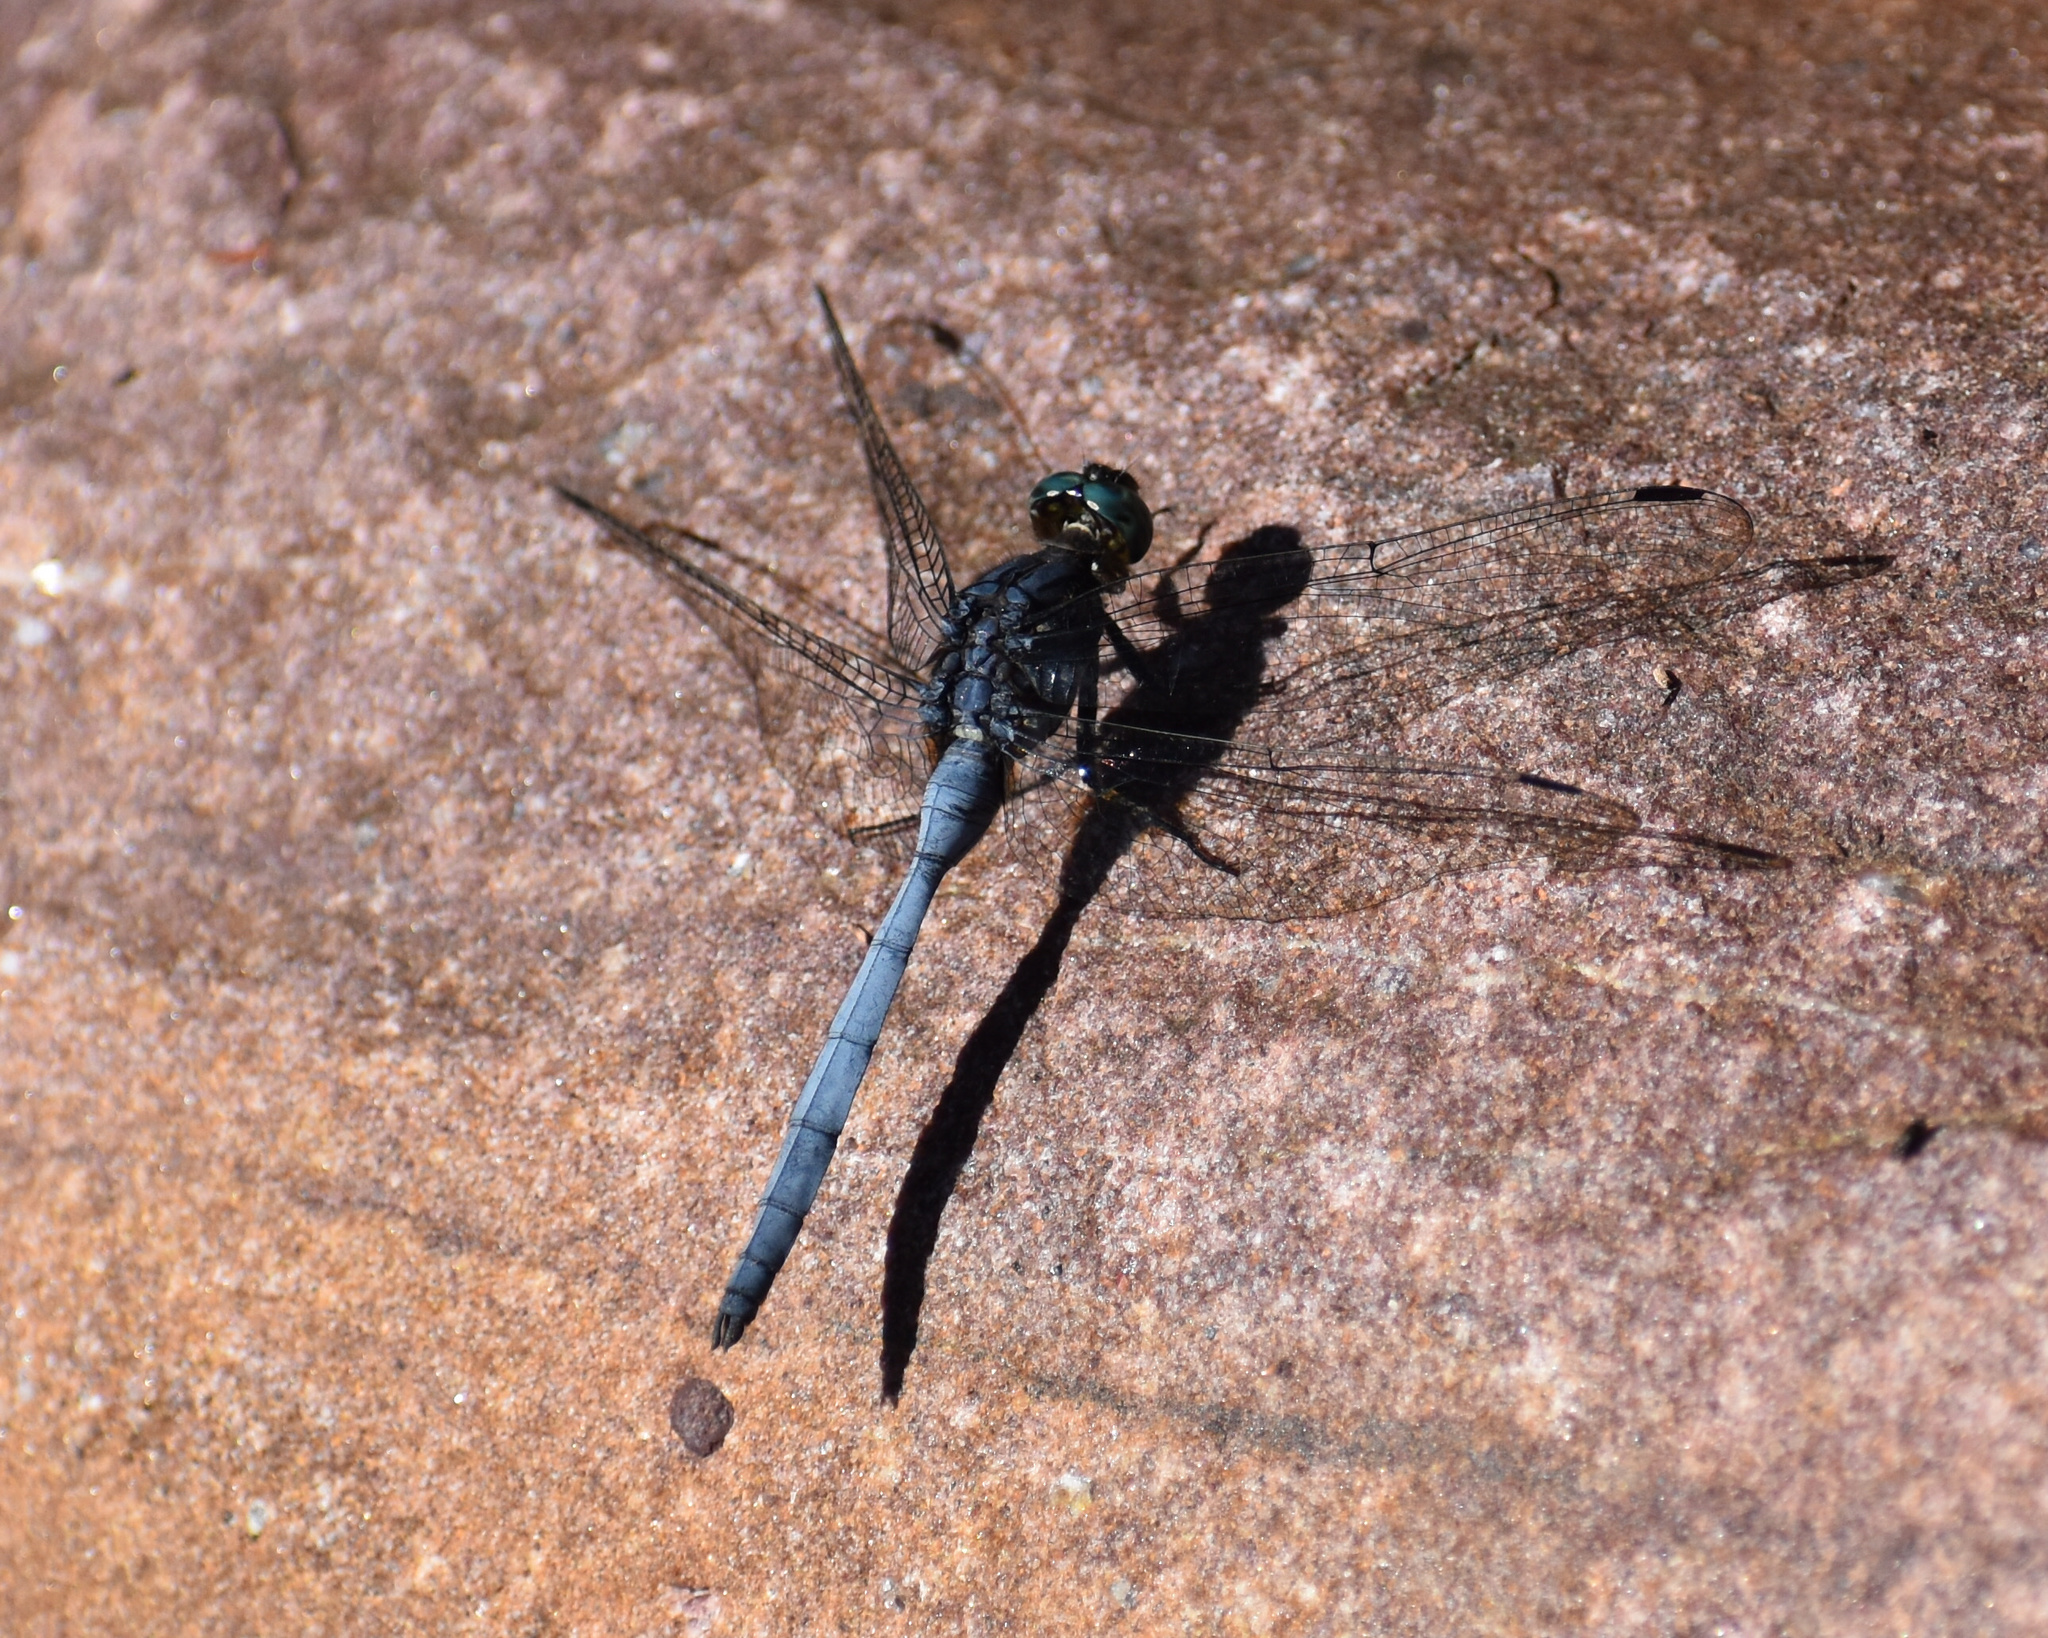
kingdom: Animalia
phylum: Arthropoda
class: Insecta
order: Odonata
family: Libellulidae
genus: Orthetrum
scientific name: Orthetrum julia
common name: Julia skimmer
